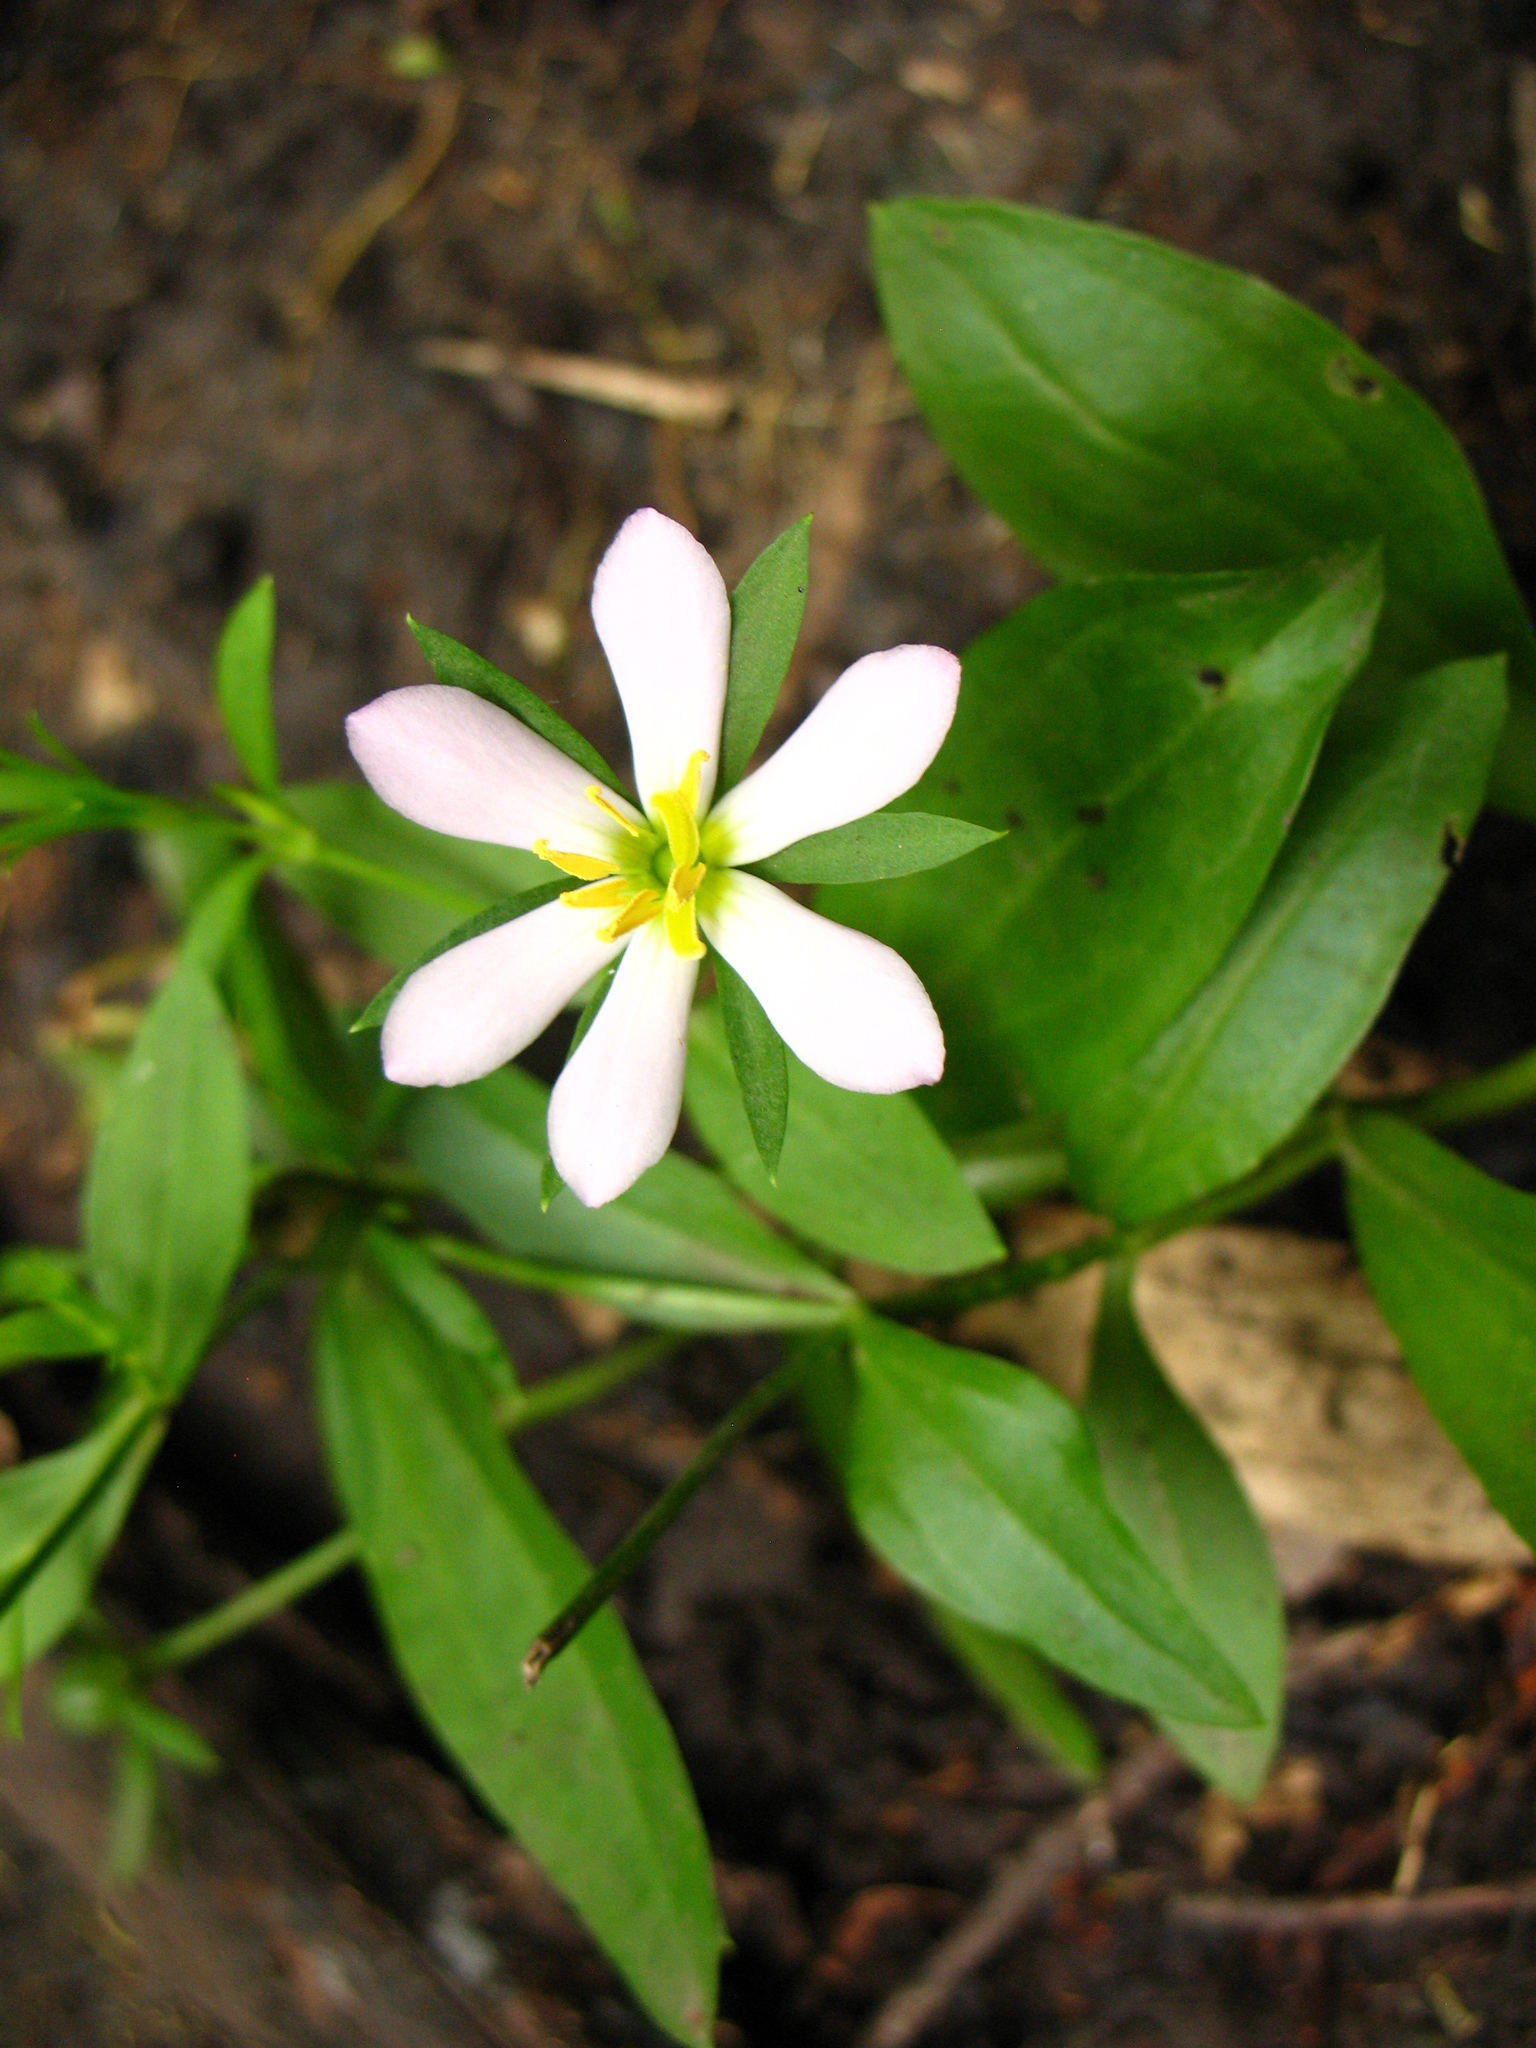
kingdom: Plantae
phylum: Tracheophyta
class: Magnoliopsida
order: Gentianales
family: Gentianaceae
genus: Sabatia
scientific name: Sabatia calycina
